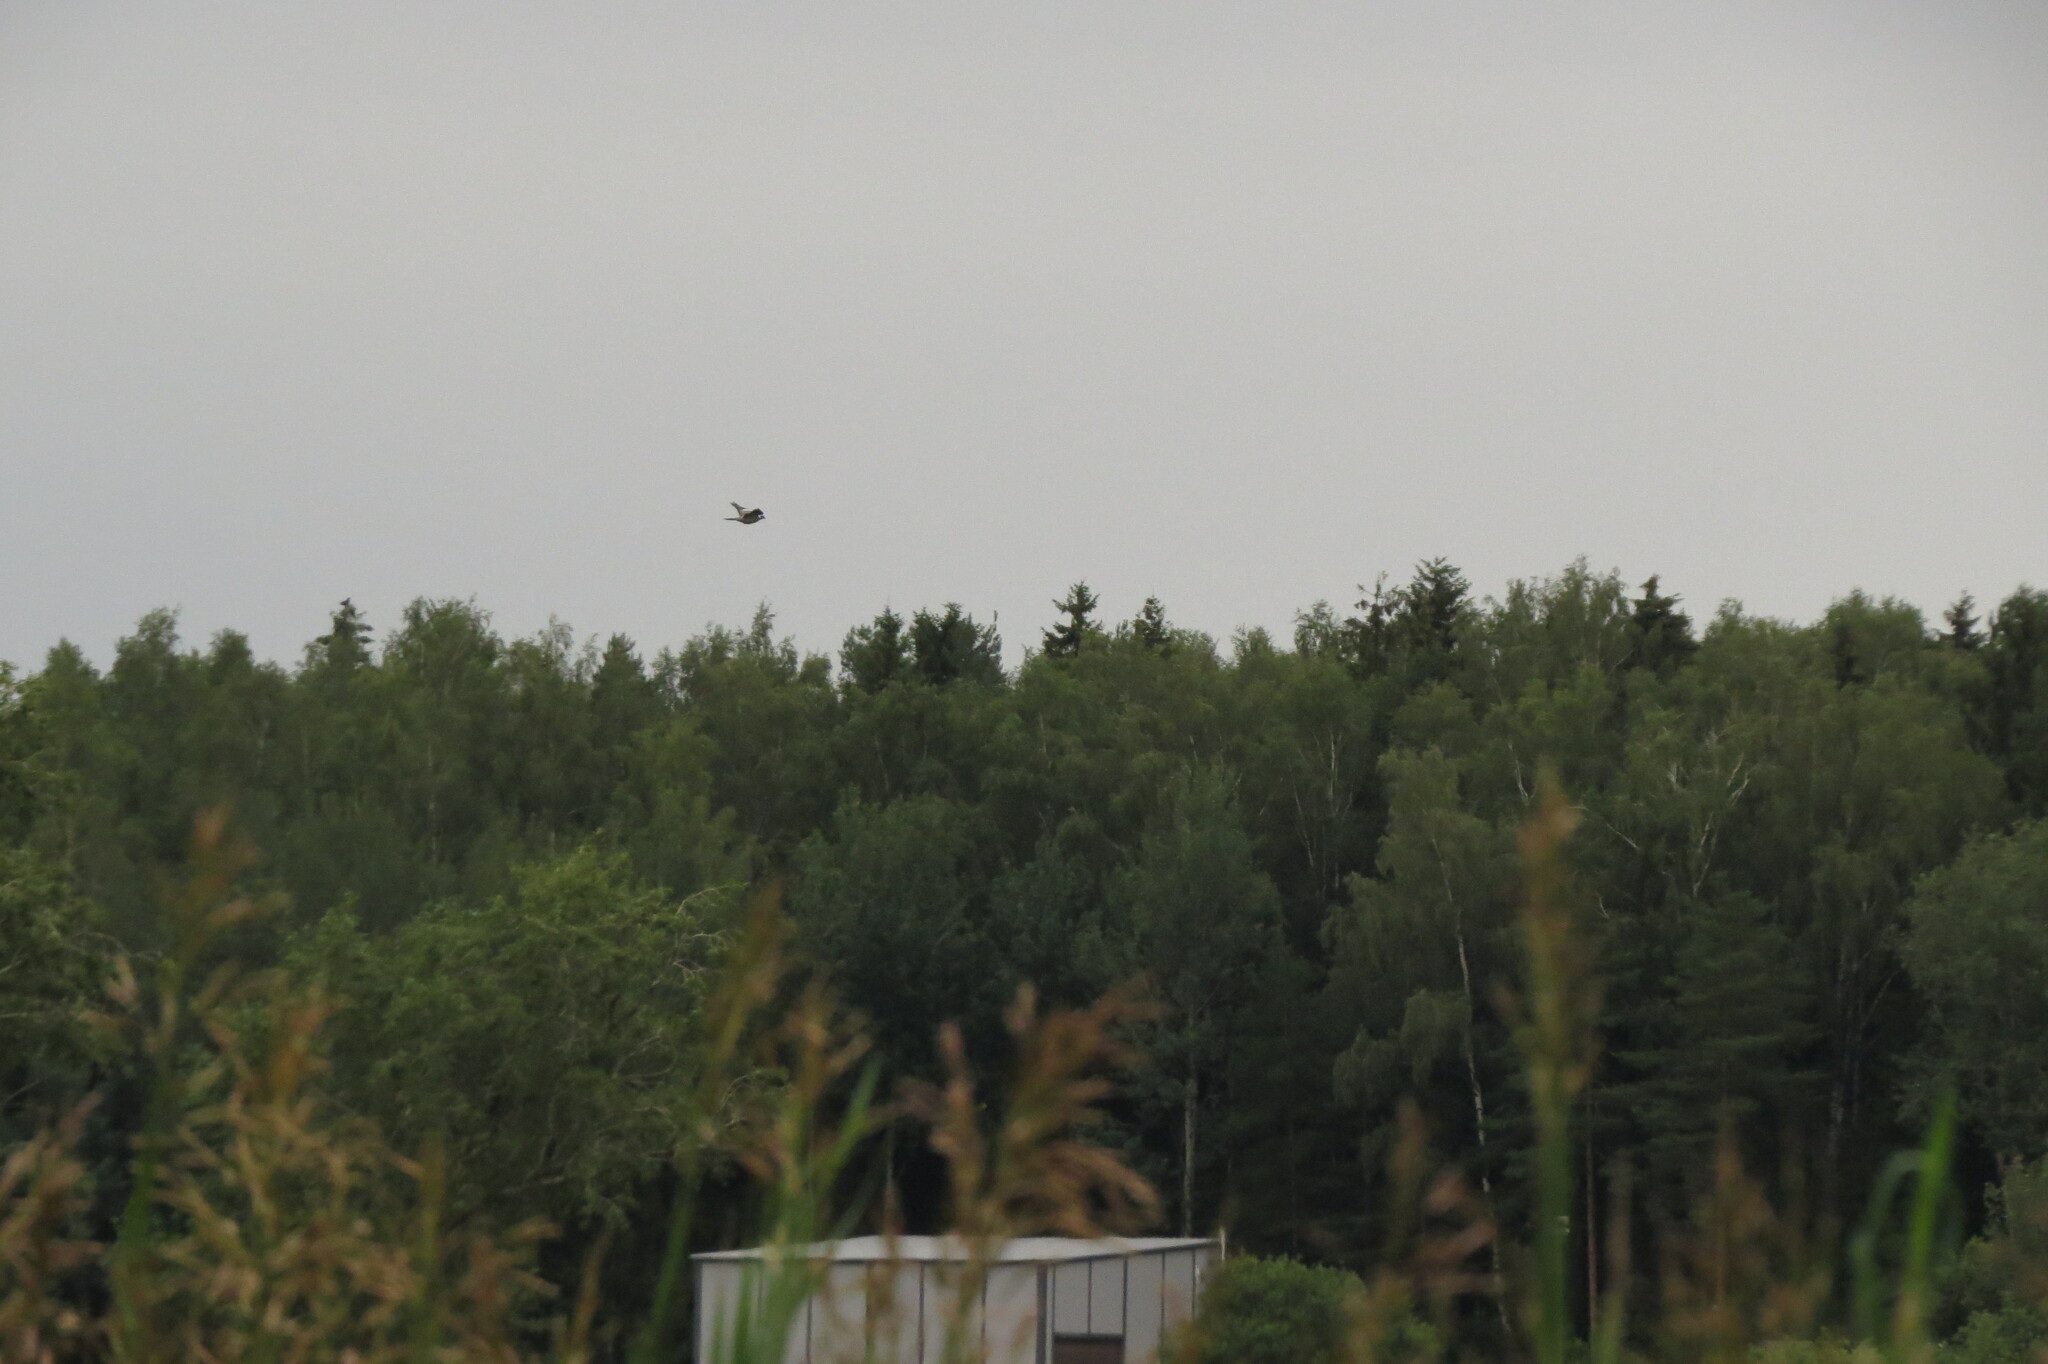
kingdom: Animalia
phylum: Chordata
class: Aves
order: Columbiformes
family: Columbidae
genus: Columba
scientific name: Columba palumbus
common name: Common wood pigeon
